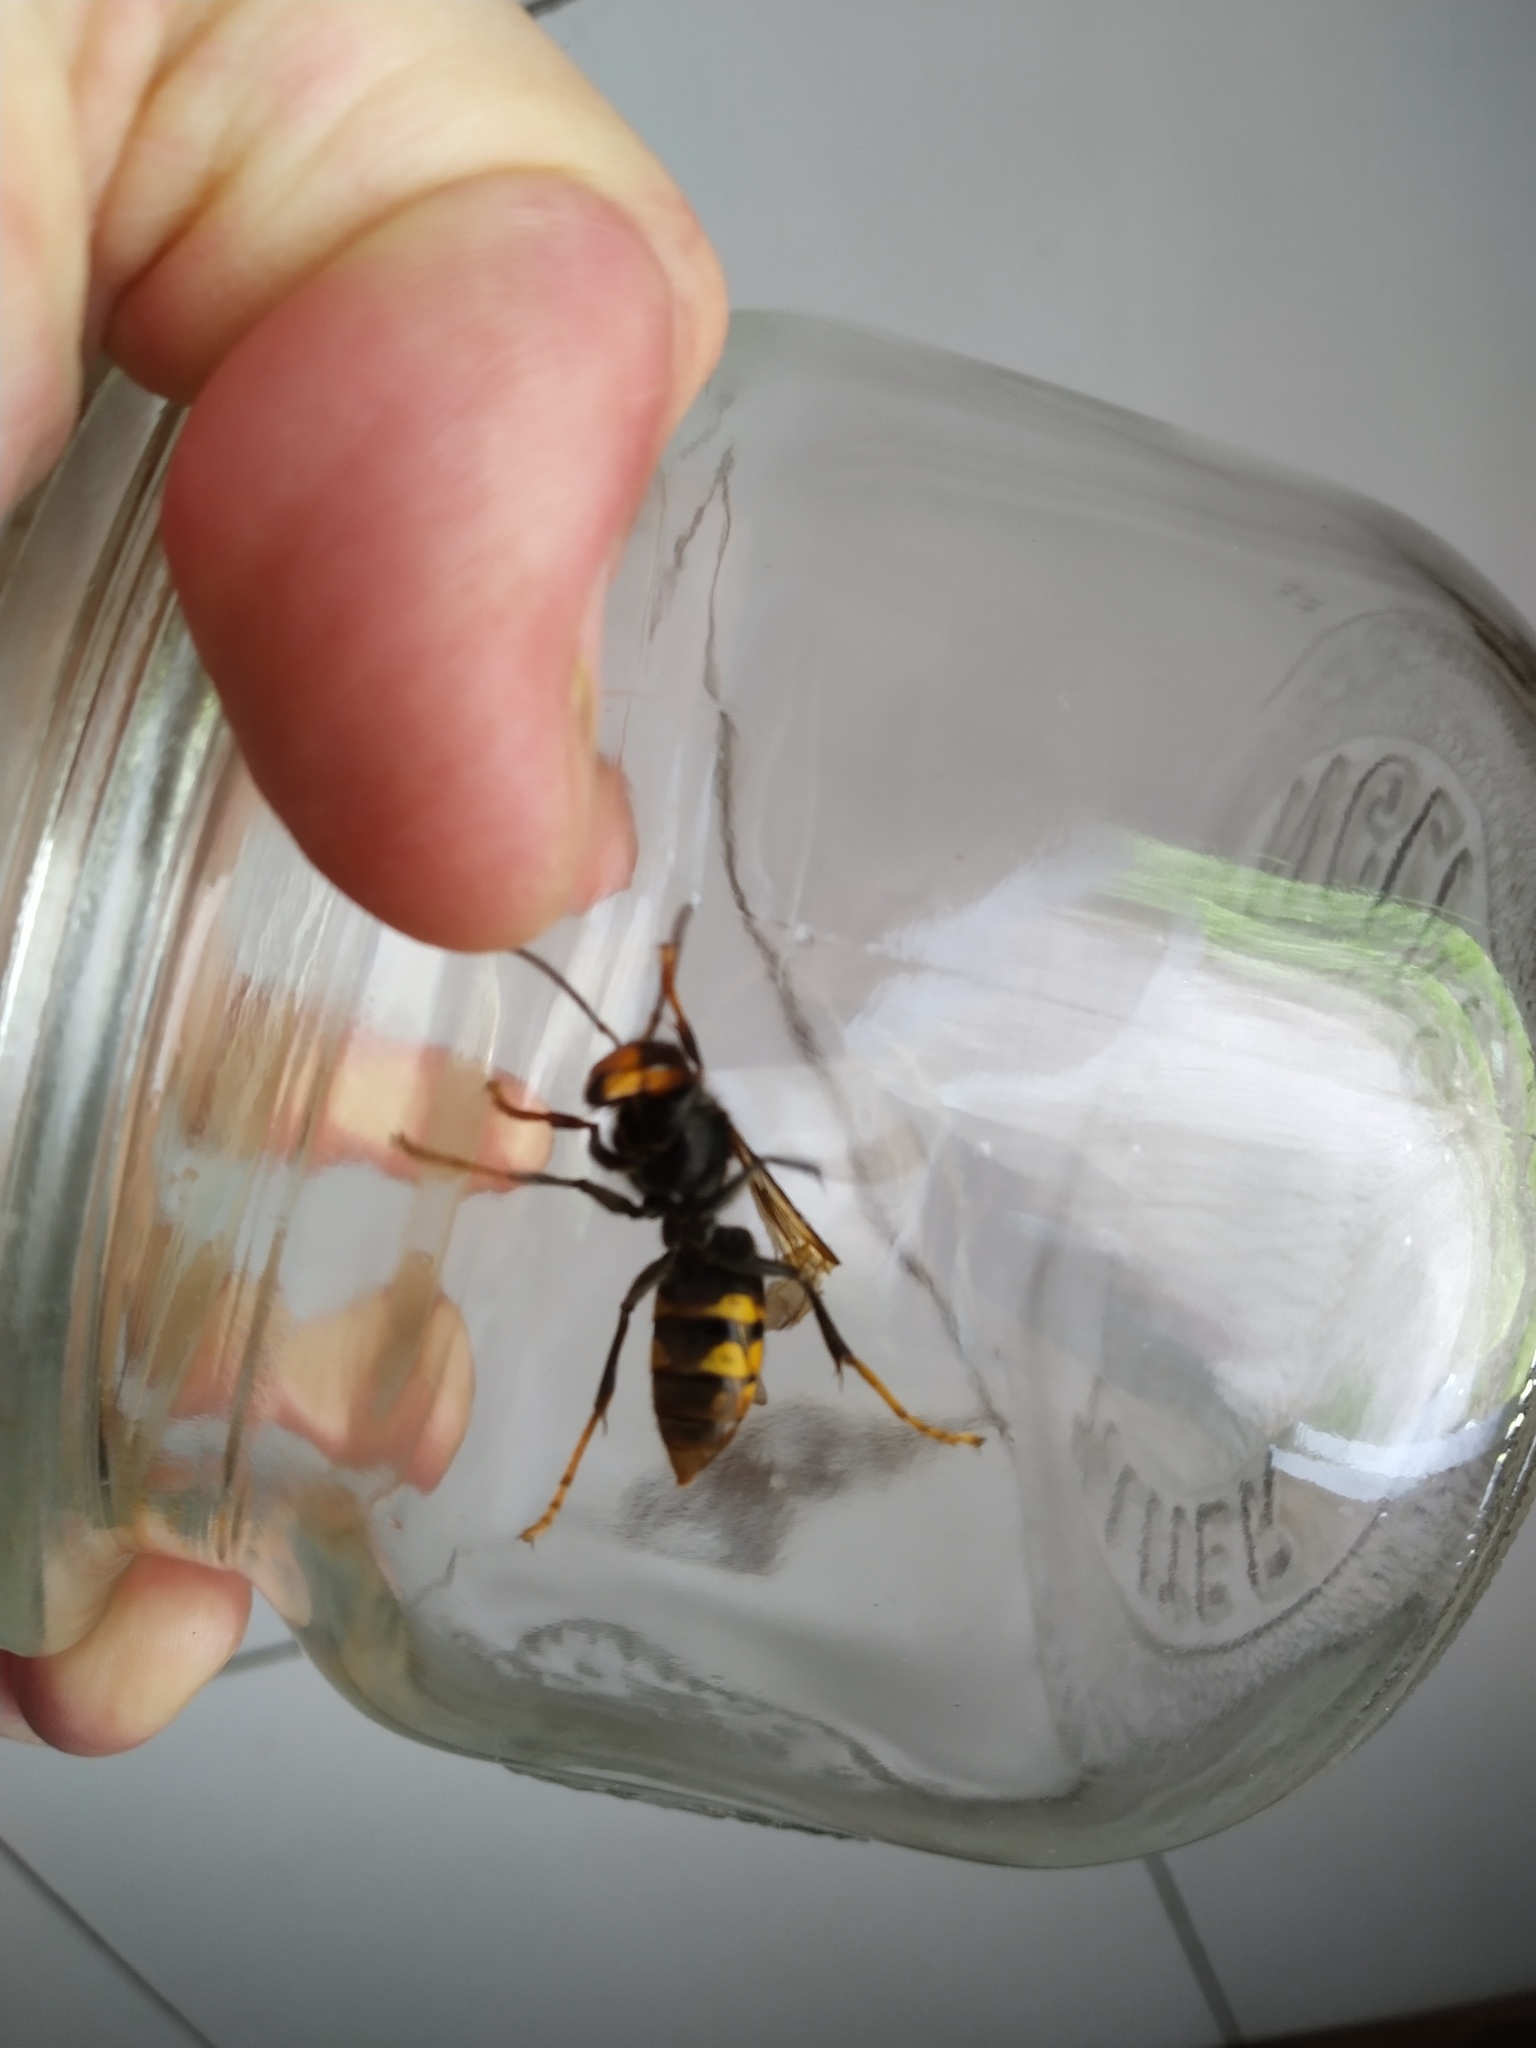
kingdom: Animalia
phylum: Arthropoda
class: Insecta
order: Hymenoptera
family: Vespidae
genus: Vespa
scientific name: Vespa velutina
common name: Asian hornet
